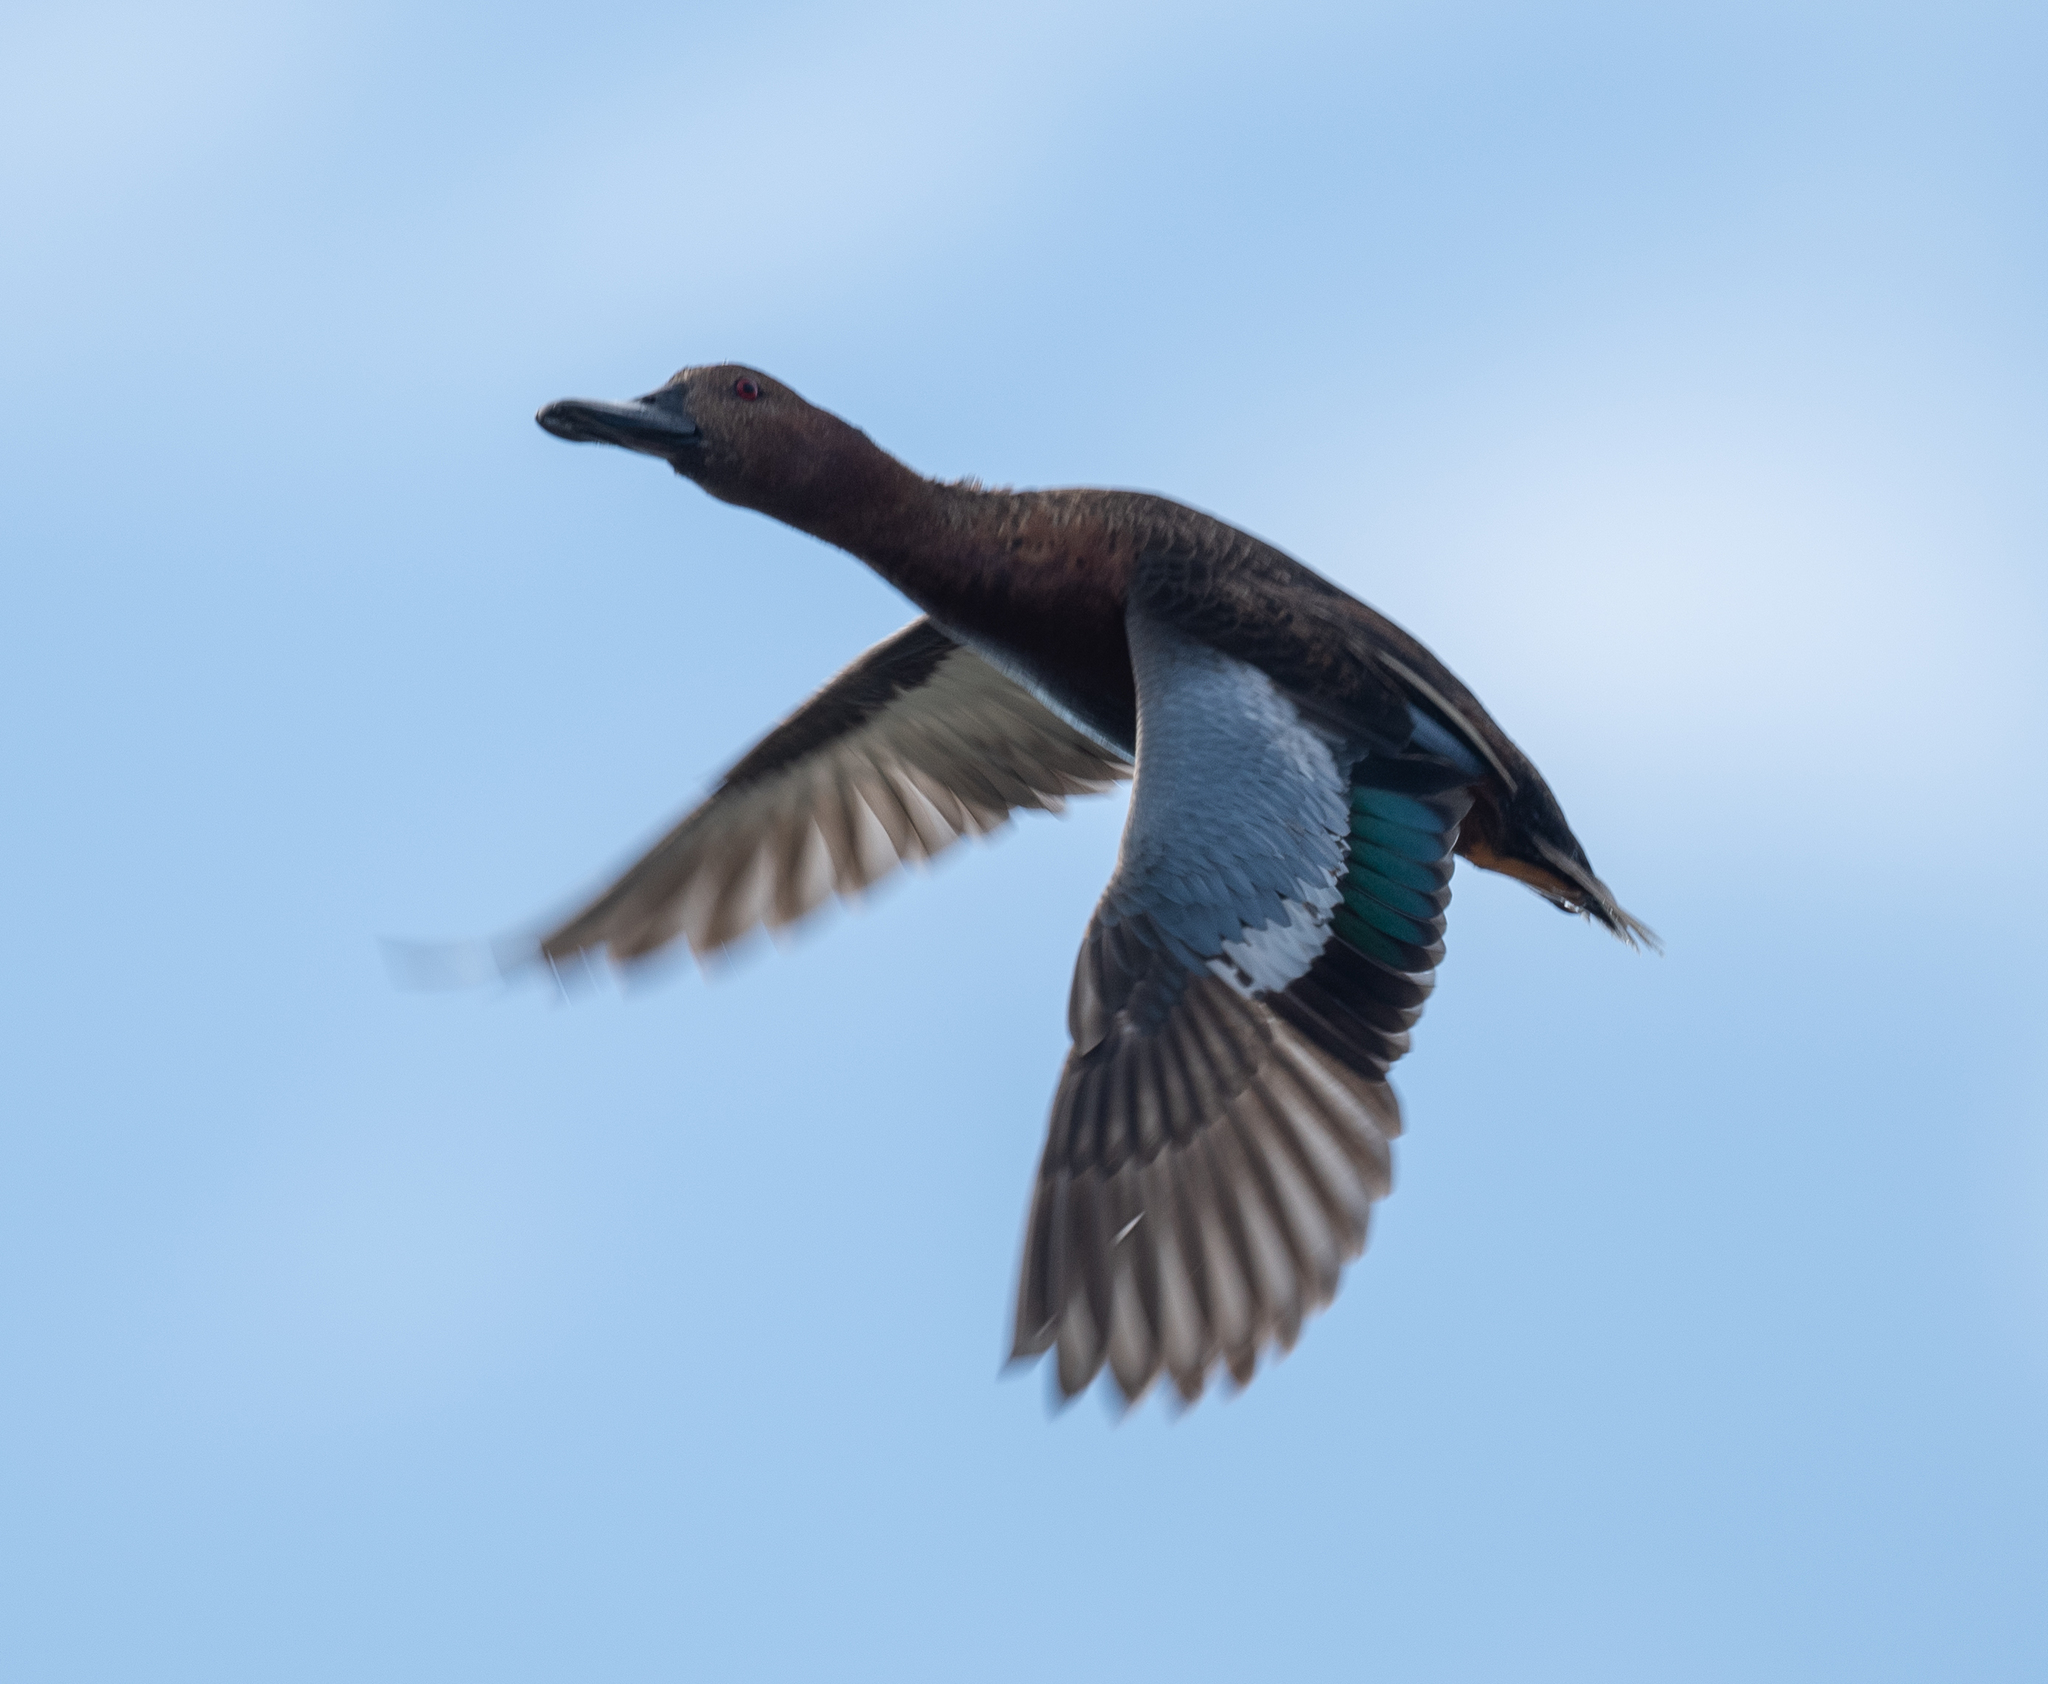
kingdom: Animalia
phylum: Chordata
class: Aves
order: Anseriformes
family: Anatidae
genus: Spatula
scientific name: Spatula cyanoptera
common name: Cinnamon teal
